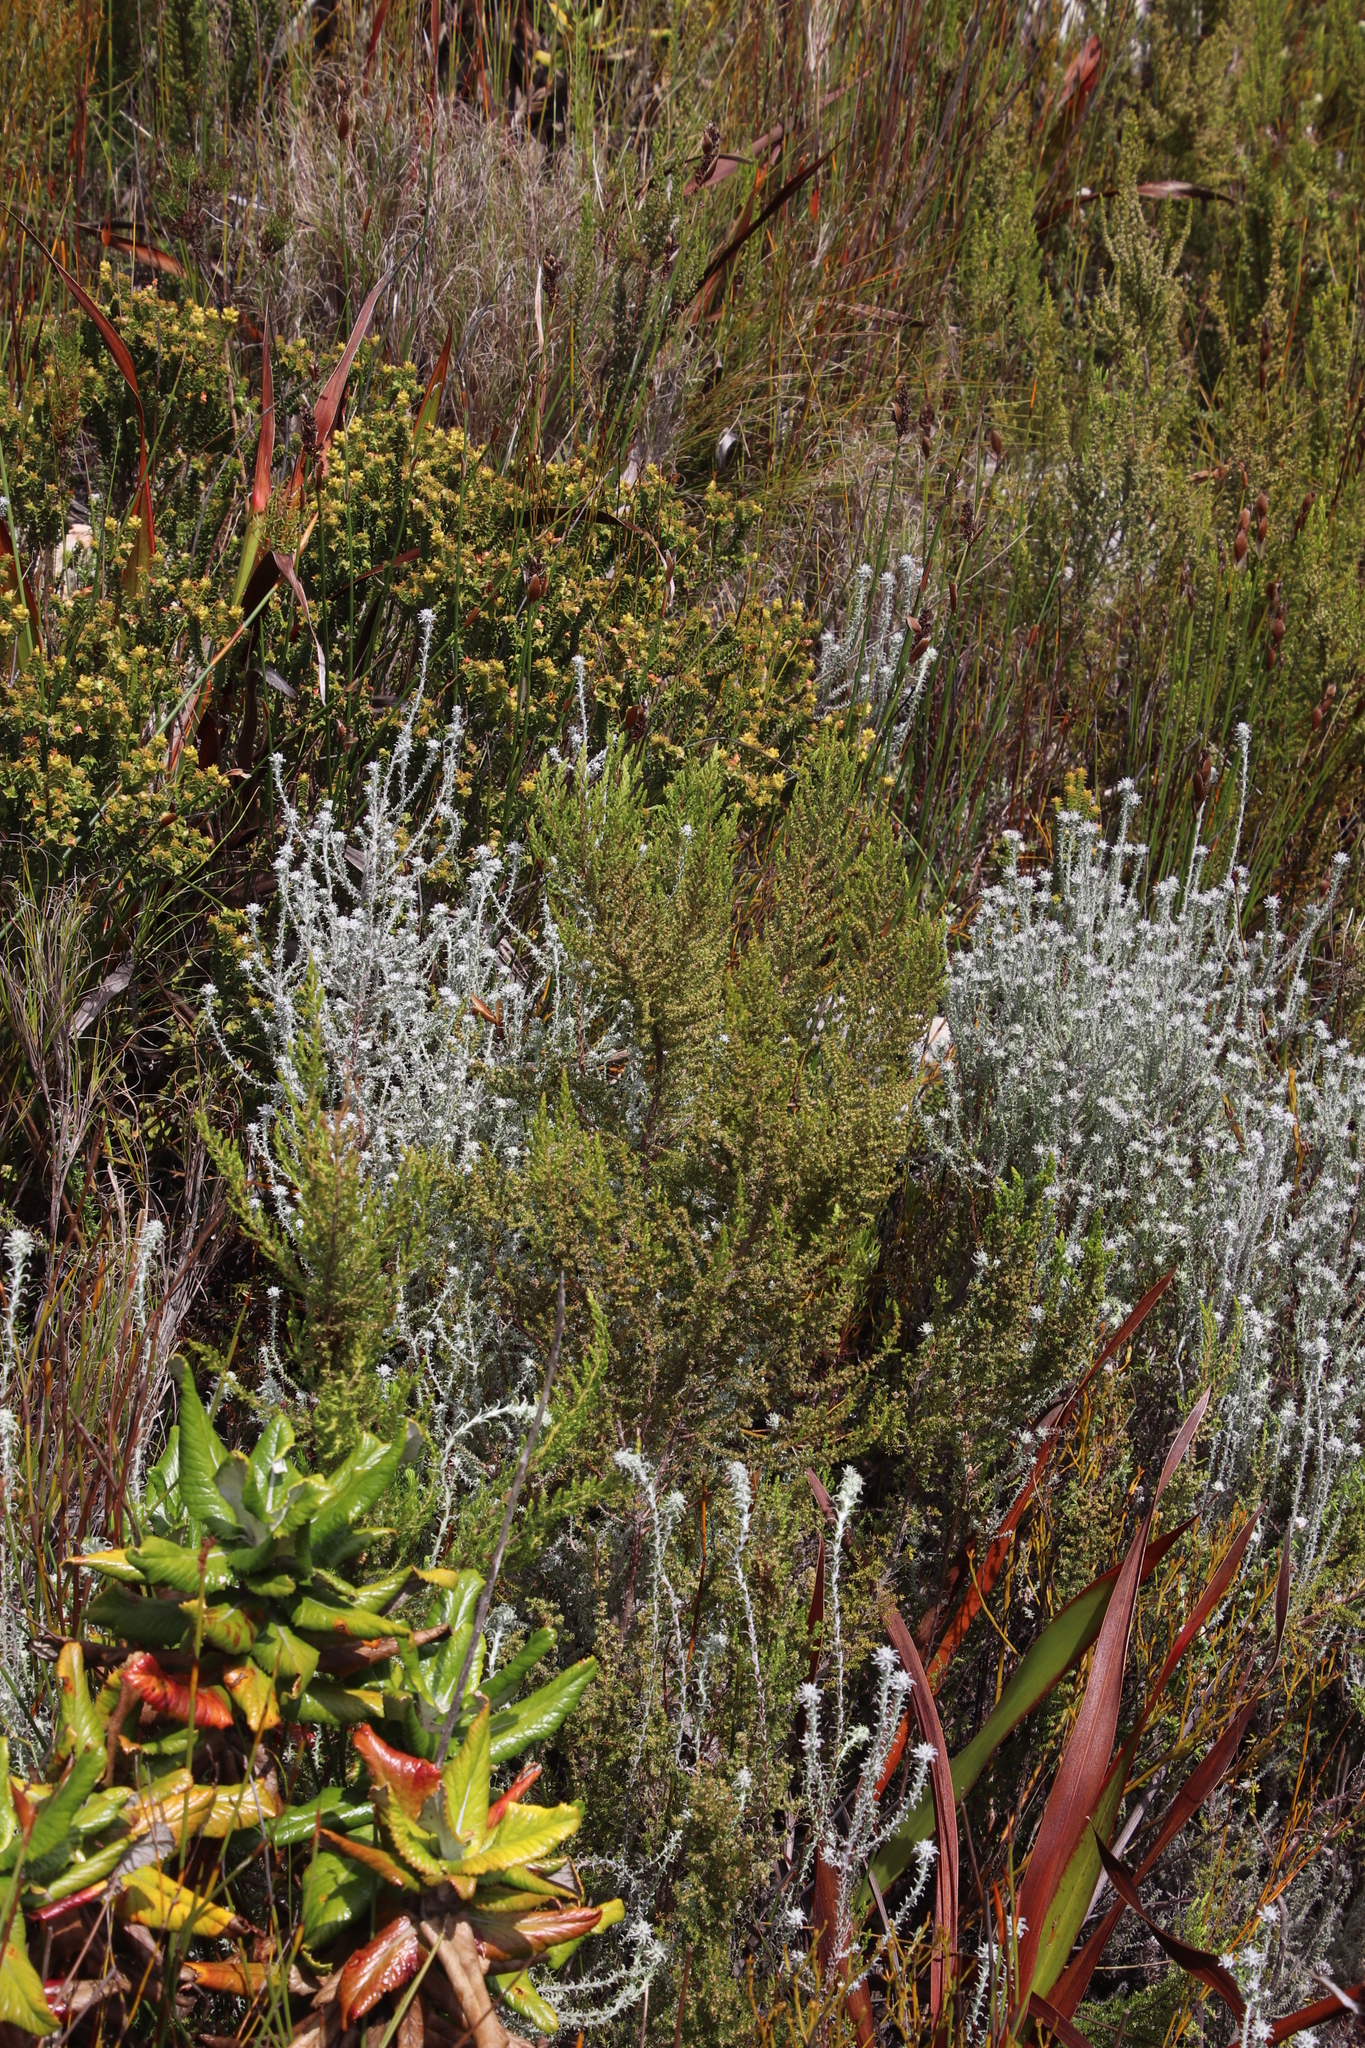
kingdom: Plantae
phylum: Tracheophyta
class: Magnoliopsida
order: Ericales
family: Ericaceae
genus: Erica
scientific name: Erica muscosa
